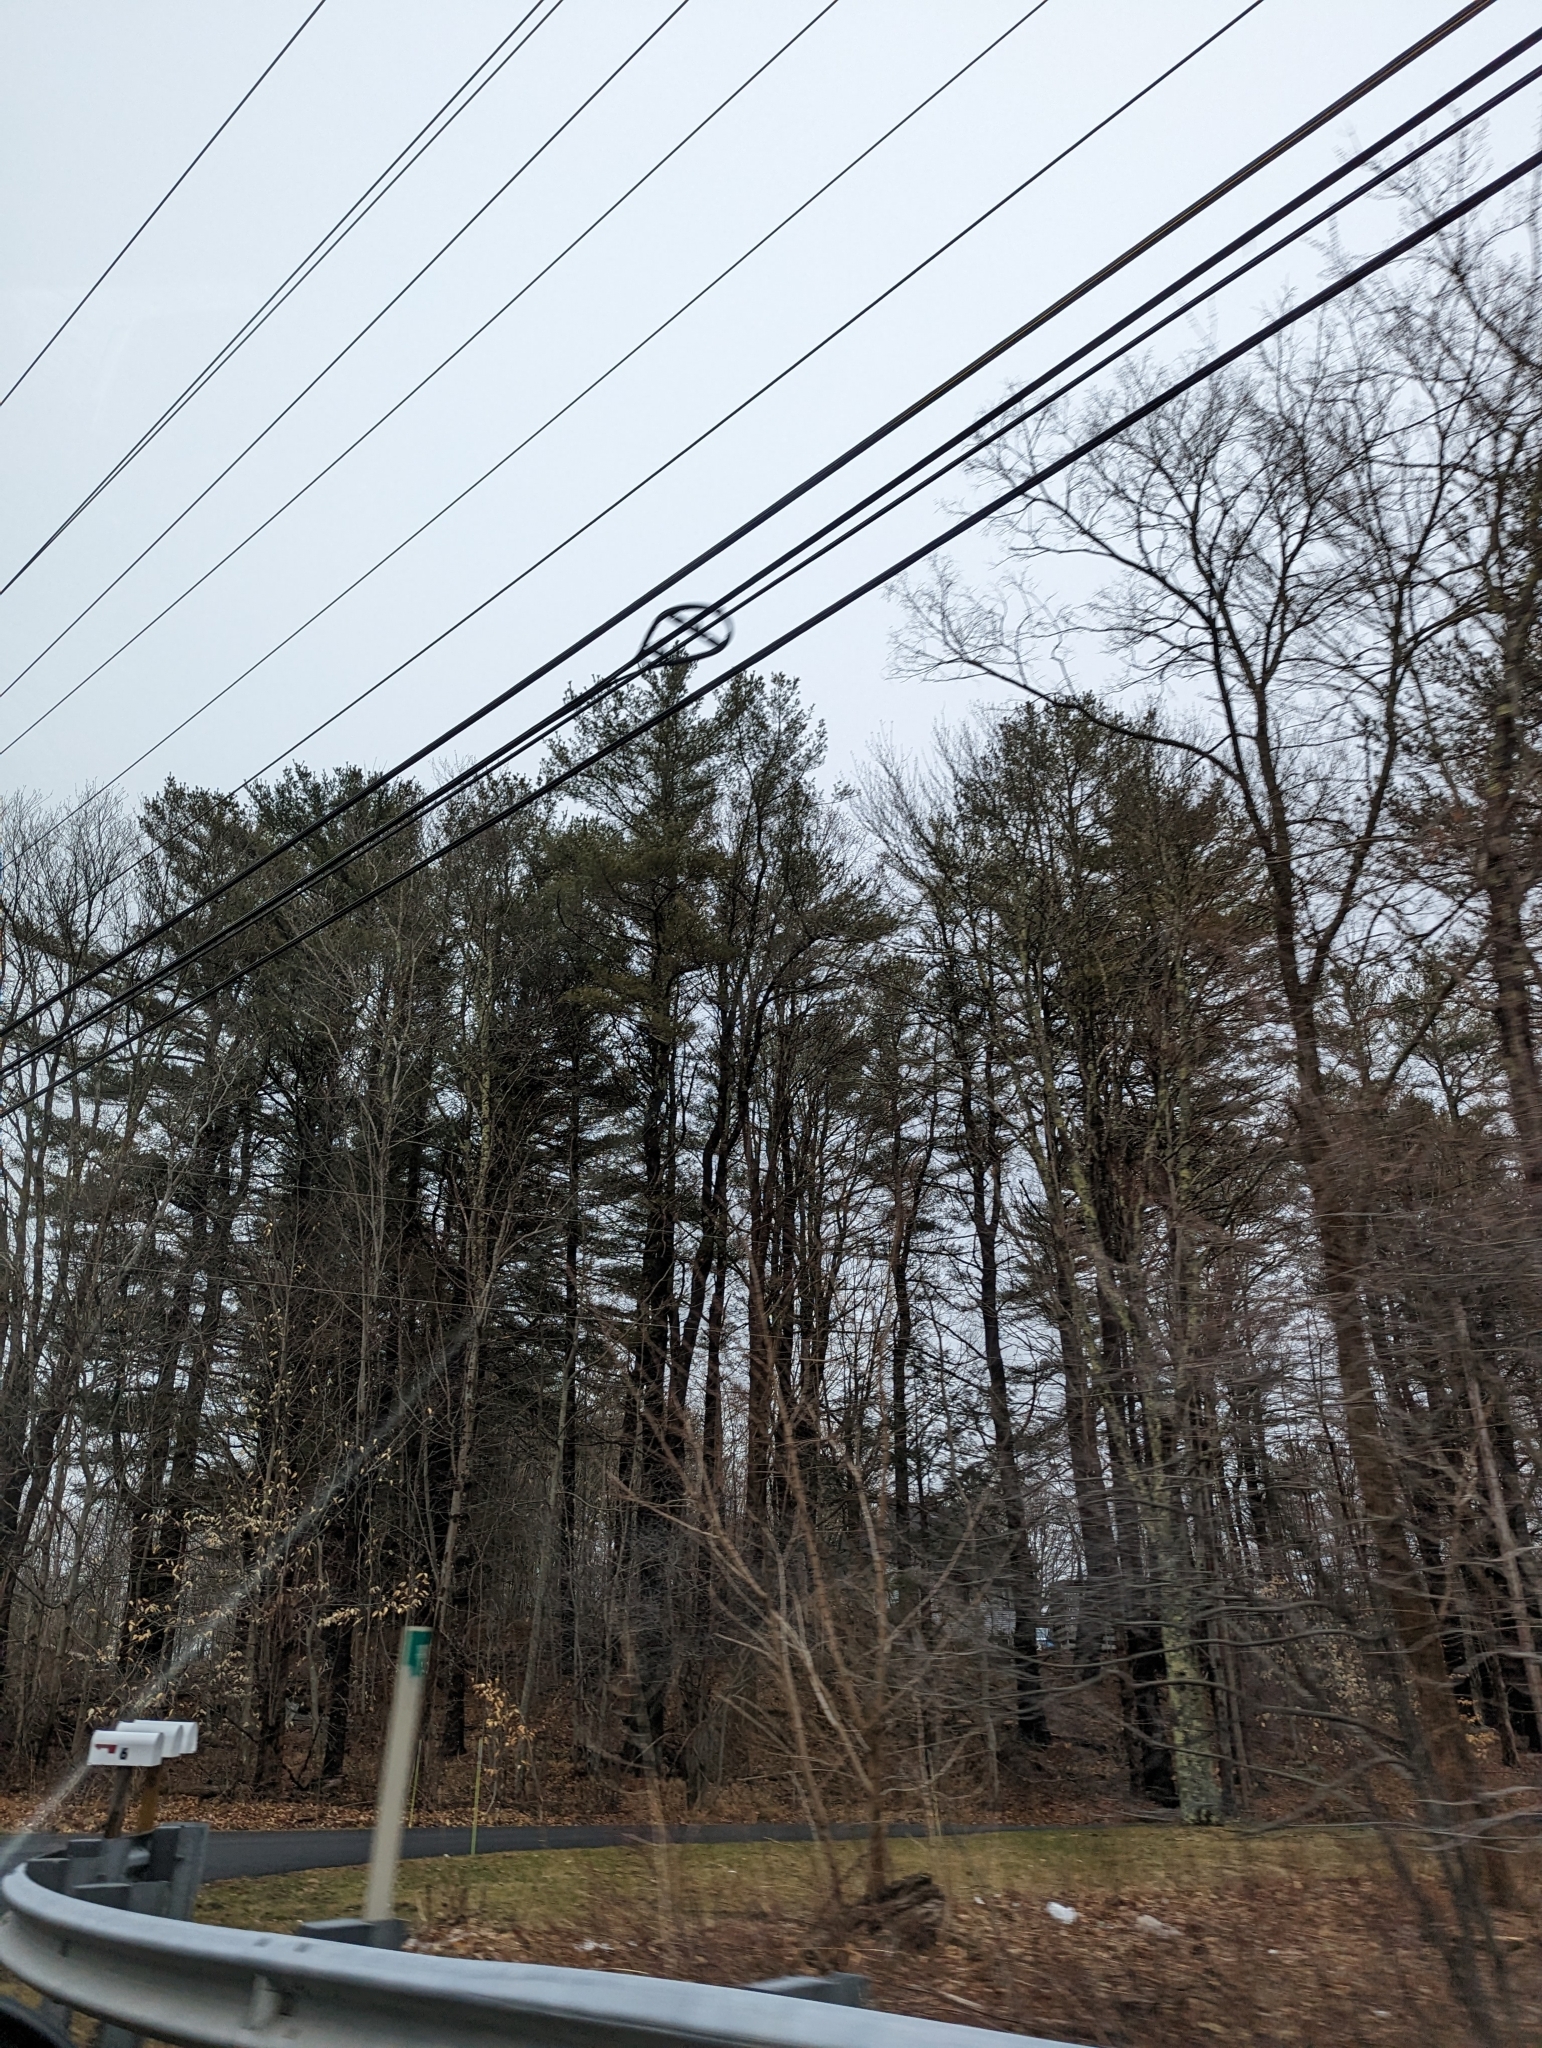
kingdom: Plantae
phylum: Tracheophyta
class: Pinopsida
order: Pinales
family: Pinaceae
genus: Pinus
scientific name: Pinus strobus
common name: Weymouth pine
